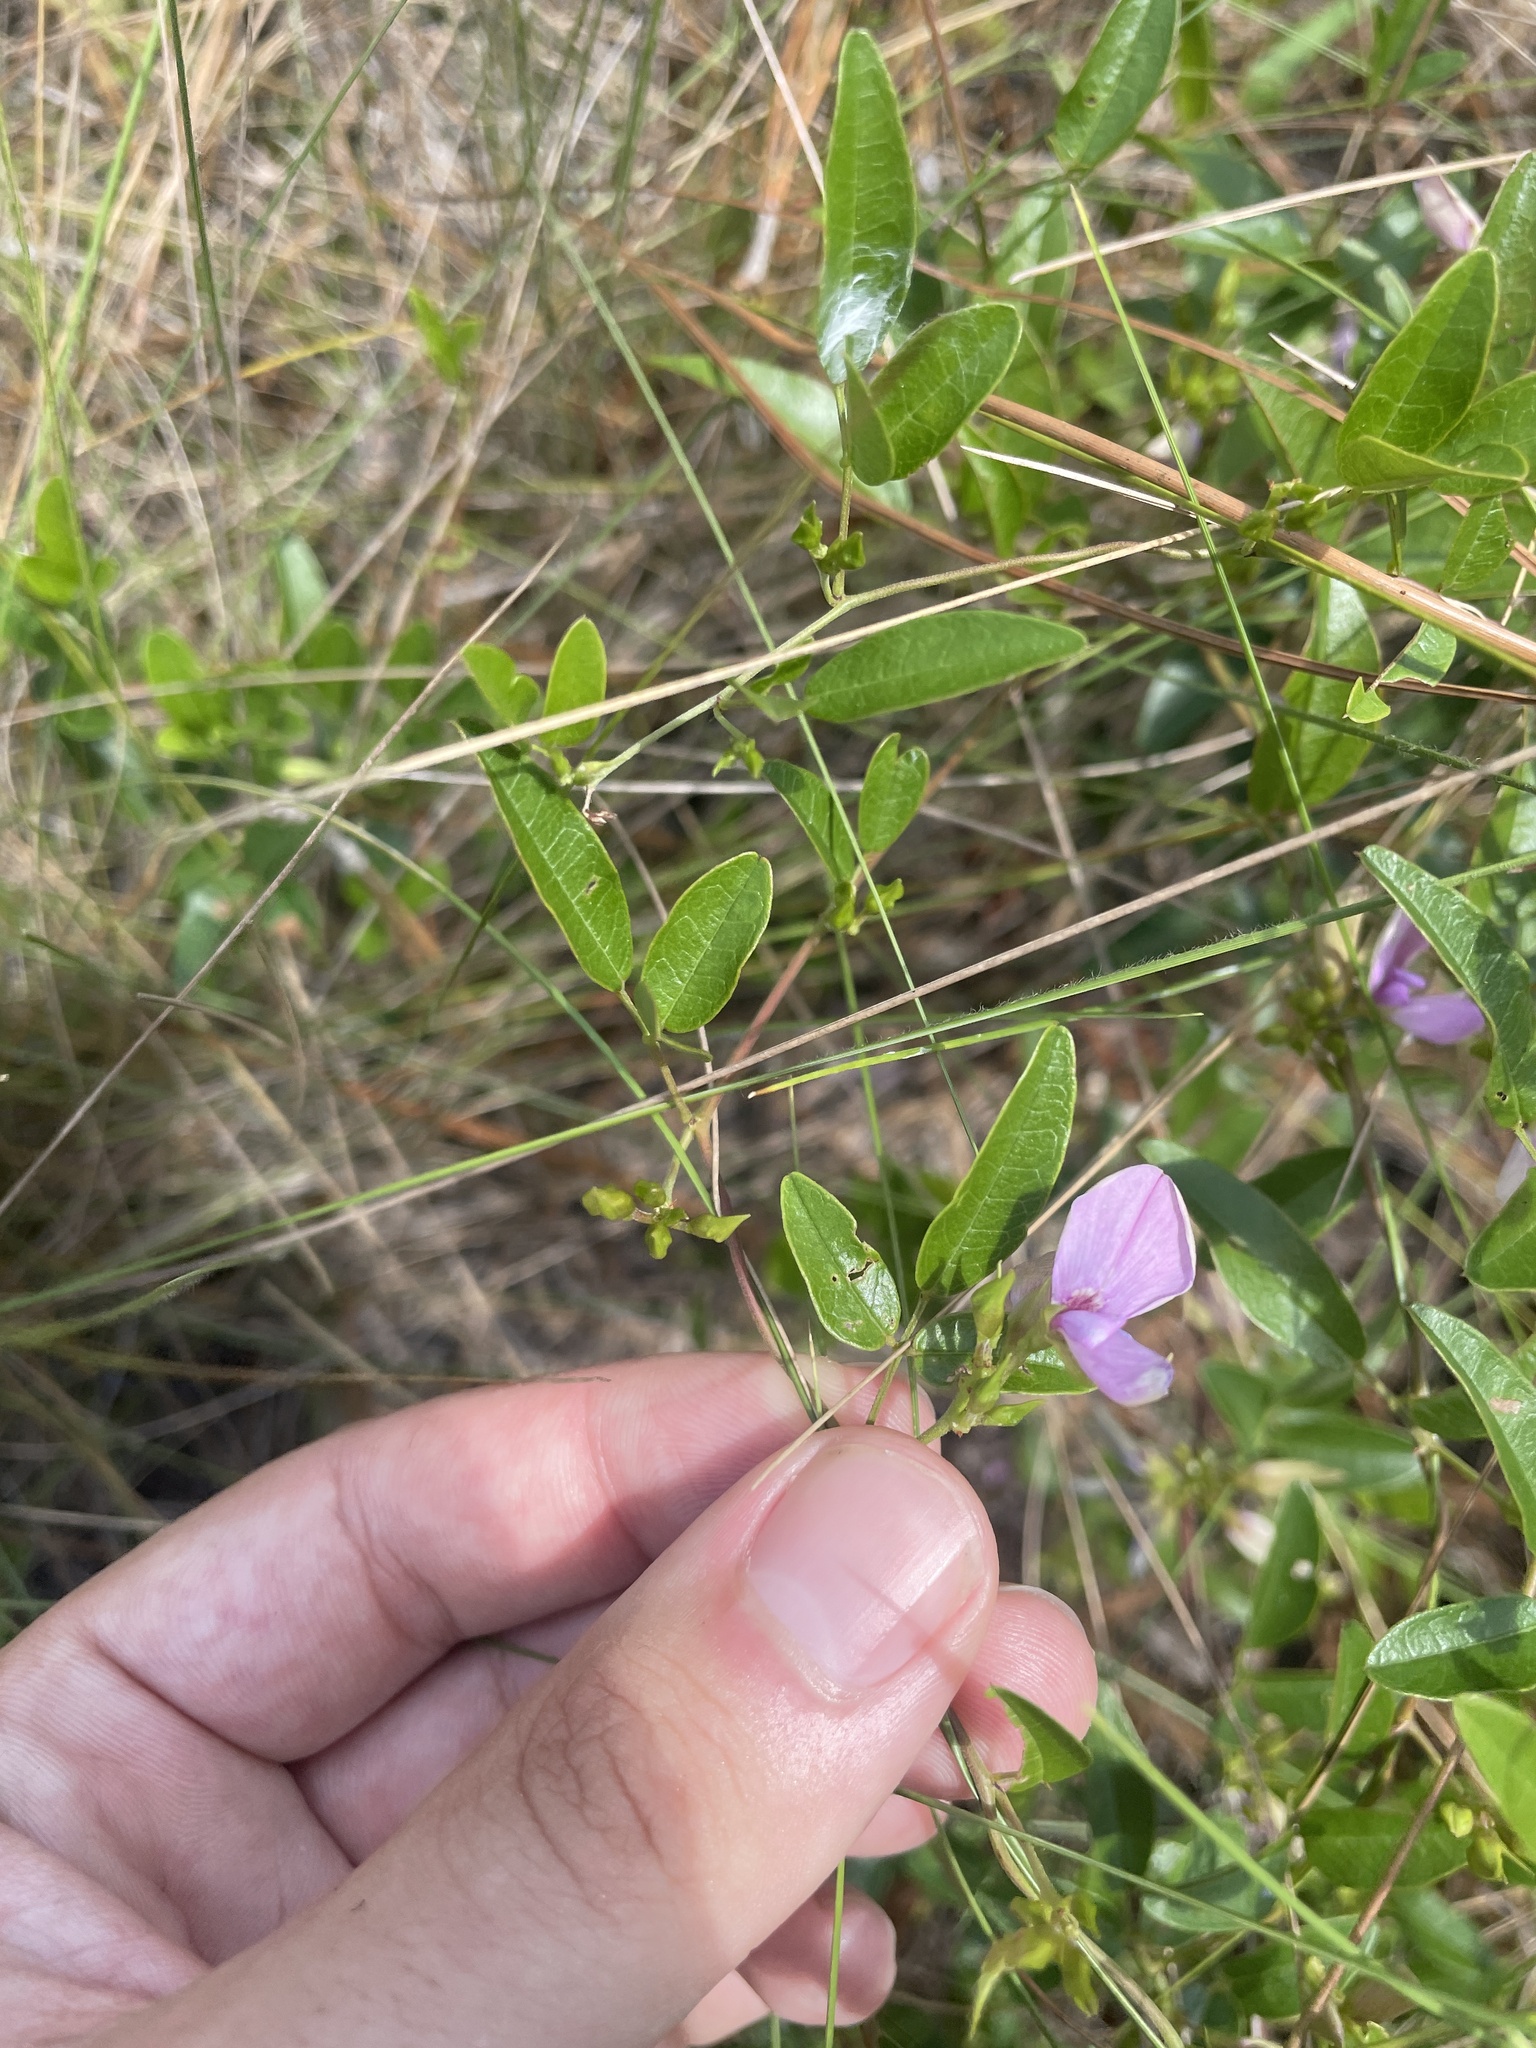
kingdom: Plantae
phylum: Tracheophyta
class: Magnoliopsida
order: Fabales
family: Fabaceae
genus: Galactia
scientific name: Galactia volubilis
